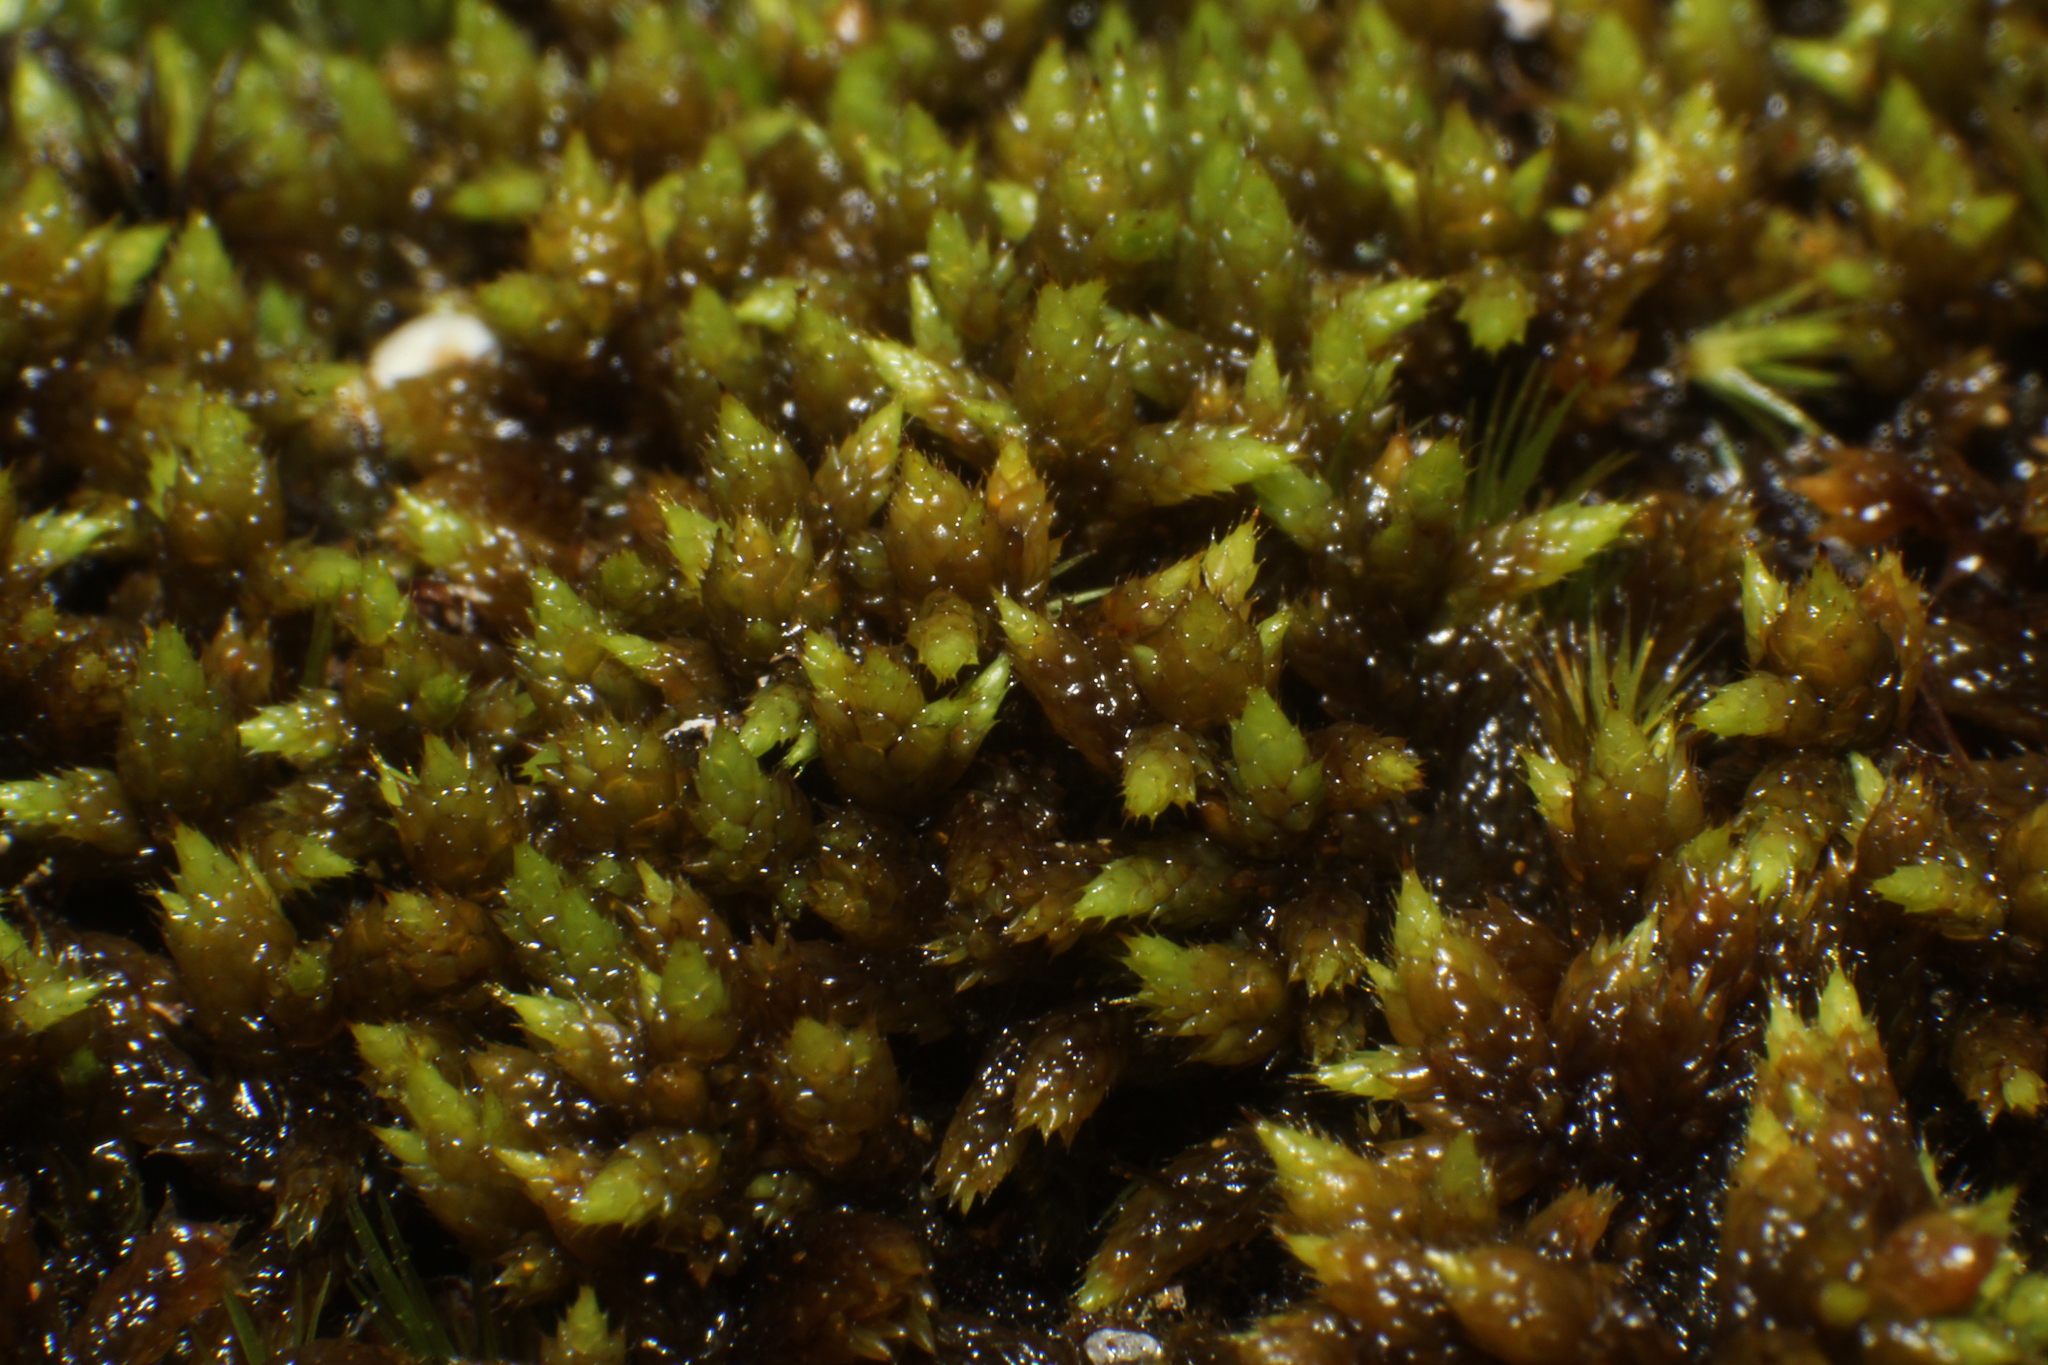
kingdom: Plantae
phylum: Bryophyta
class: Bryopsida
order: Hedwigiales
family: Hedwigiaceae
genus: Rhacocarpus
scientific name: Rhacocarpus purpurascens
